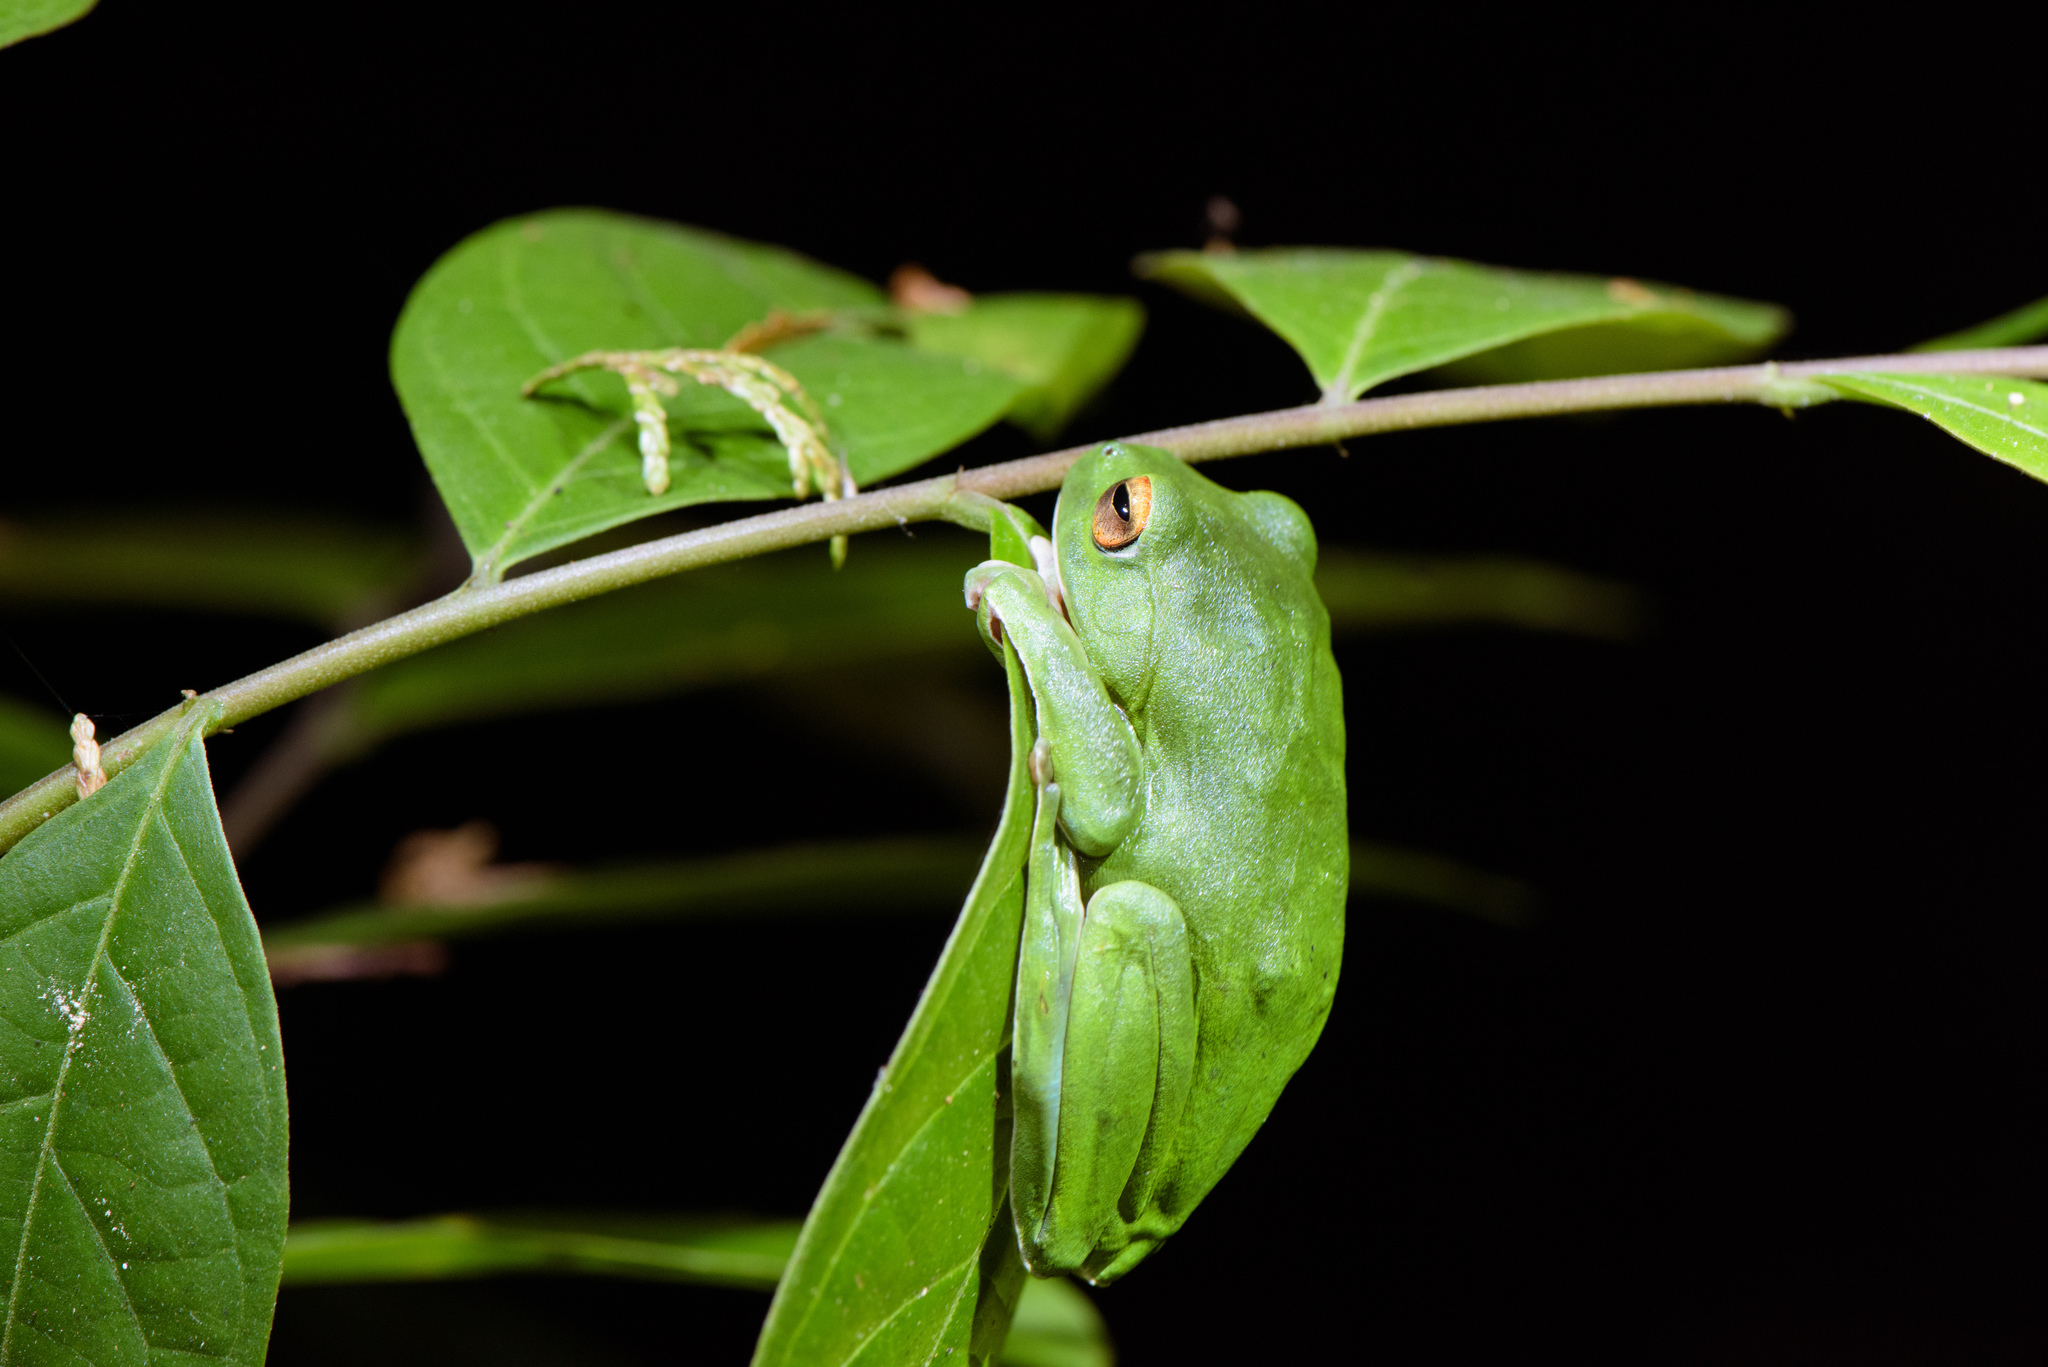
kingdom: Animalia
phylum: Chordata
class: Amphibia
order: Anura
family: Rhacophoridae
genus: Zhangixalus
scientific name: Zhangixalus moltrechti
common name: Moltrecht's treefrog
